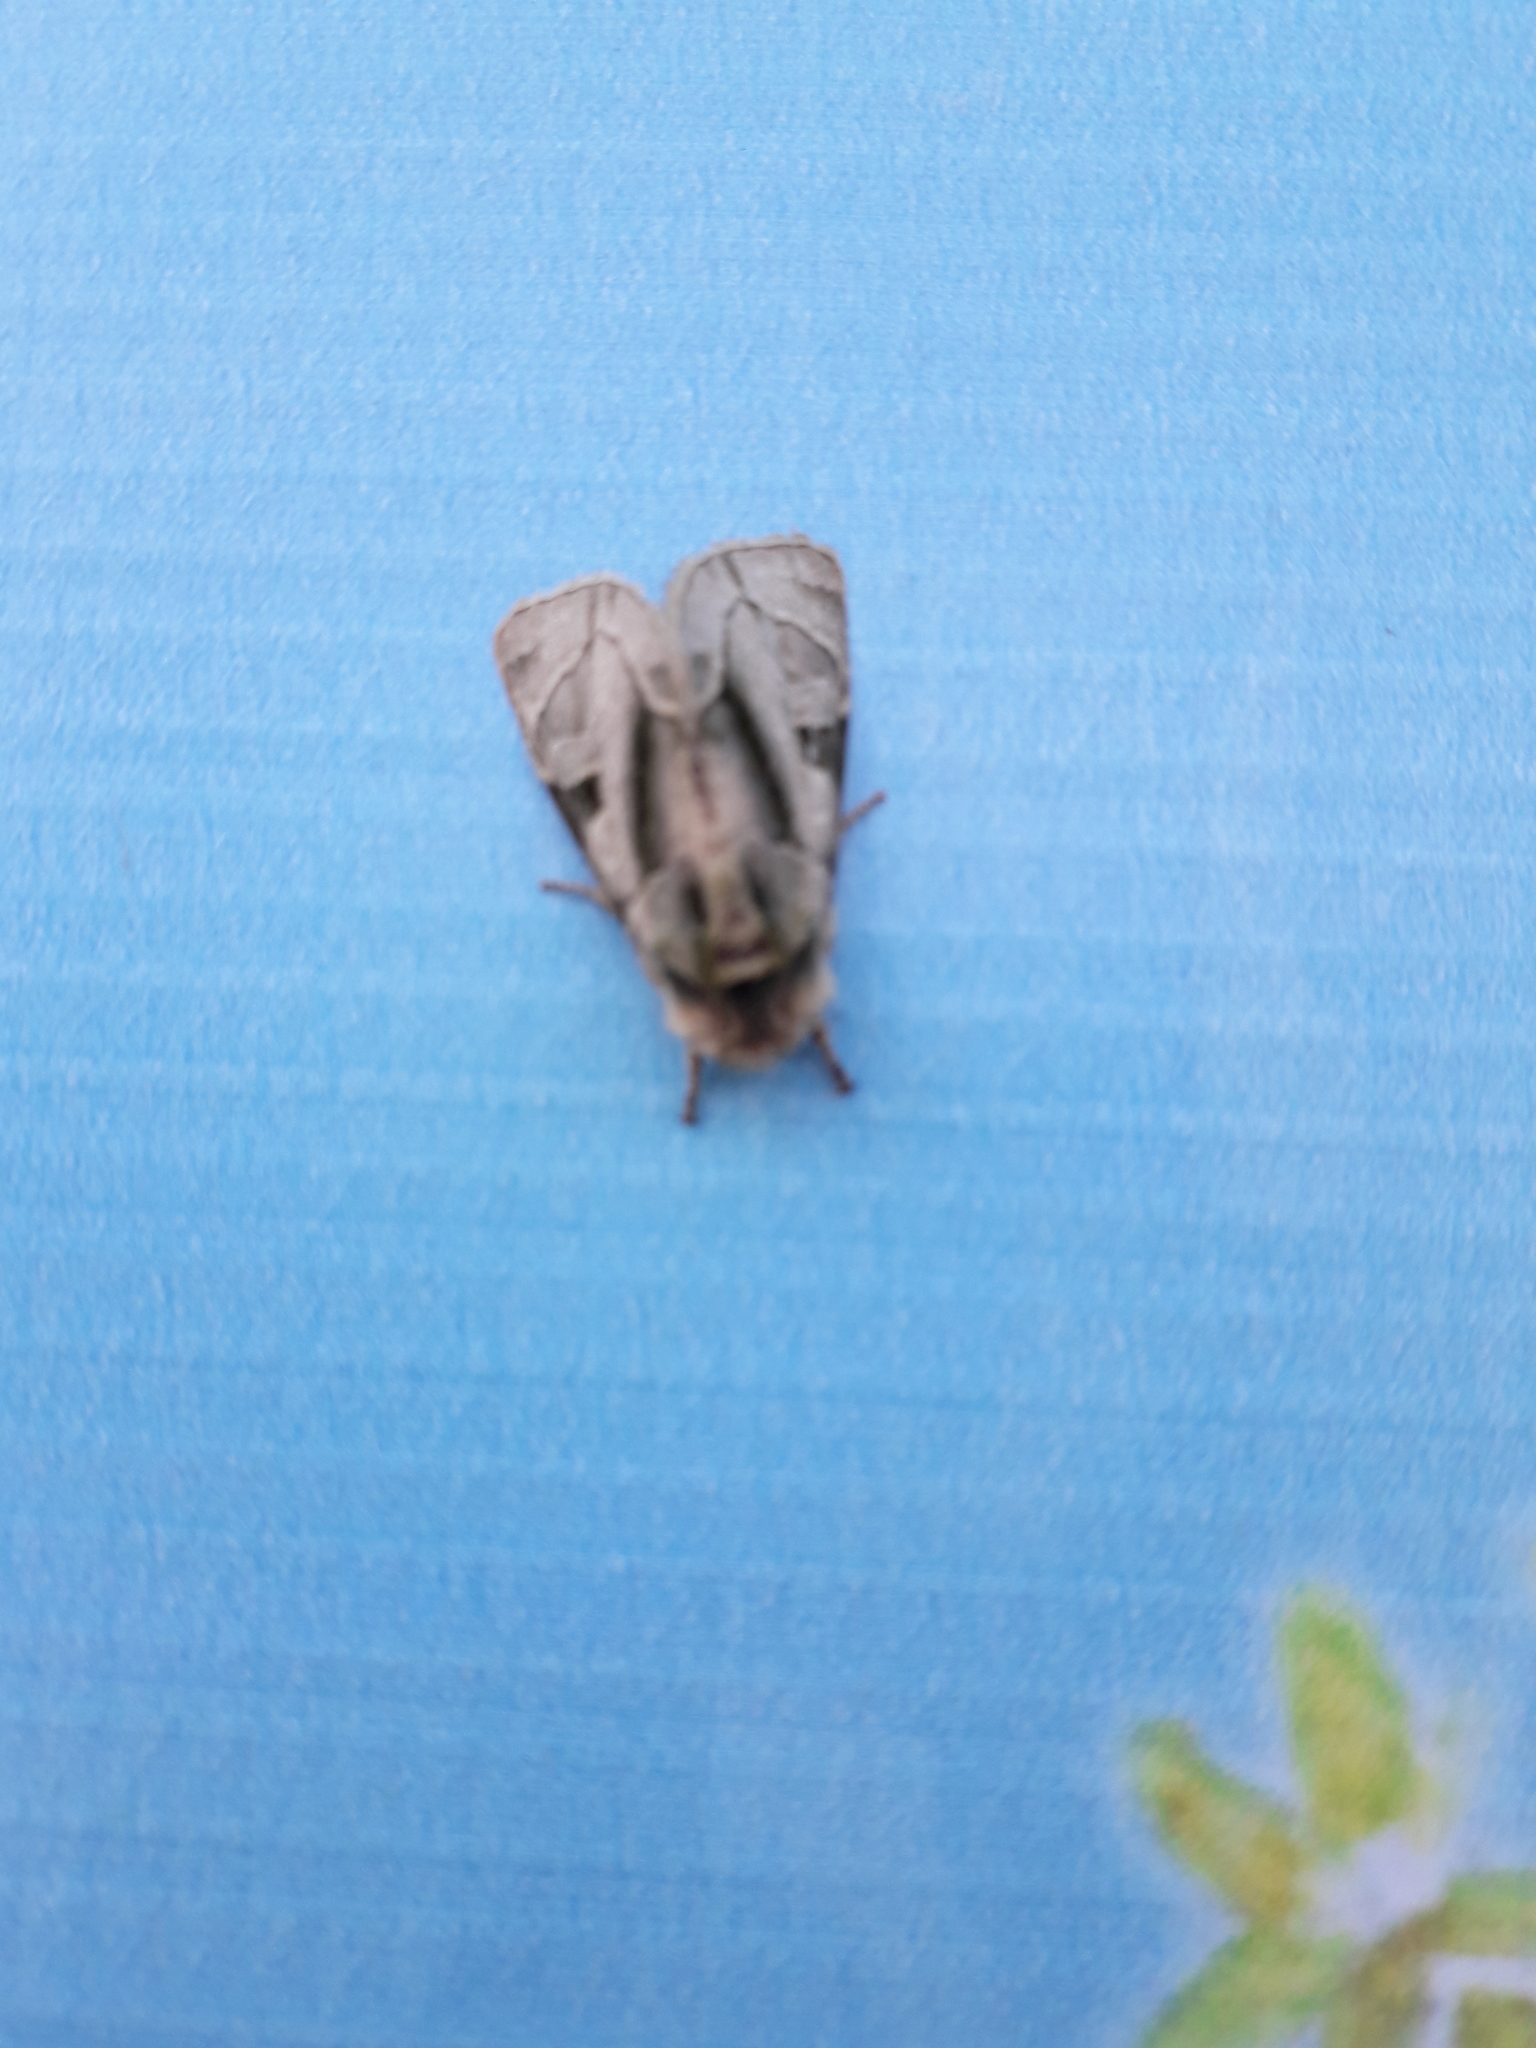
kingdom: Animalia
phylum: Arthropoda
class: Insecta
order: Lepidoptera
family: Noctuidae
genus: Oslaria
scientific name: Oslaria viridifera
